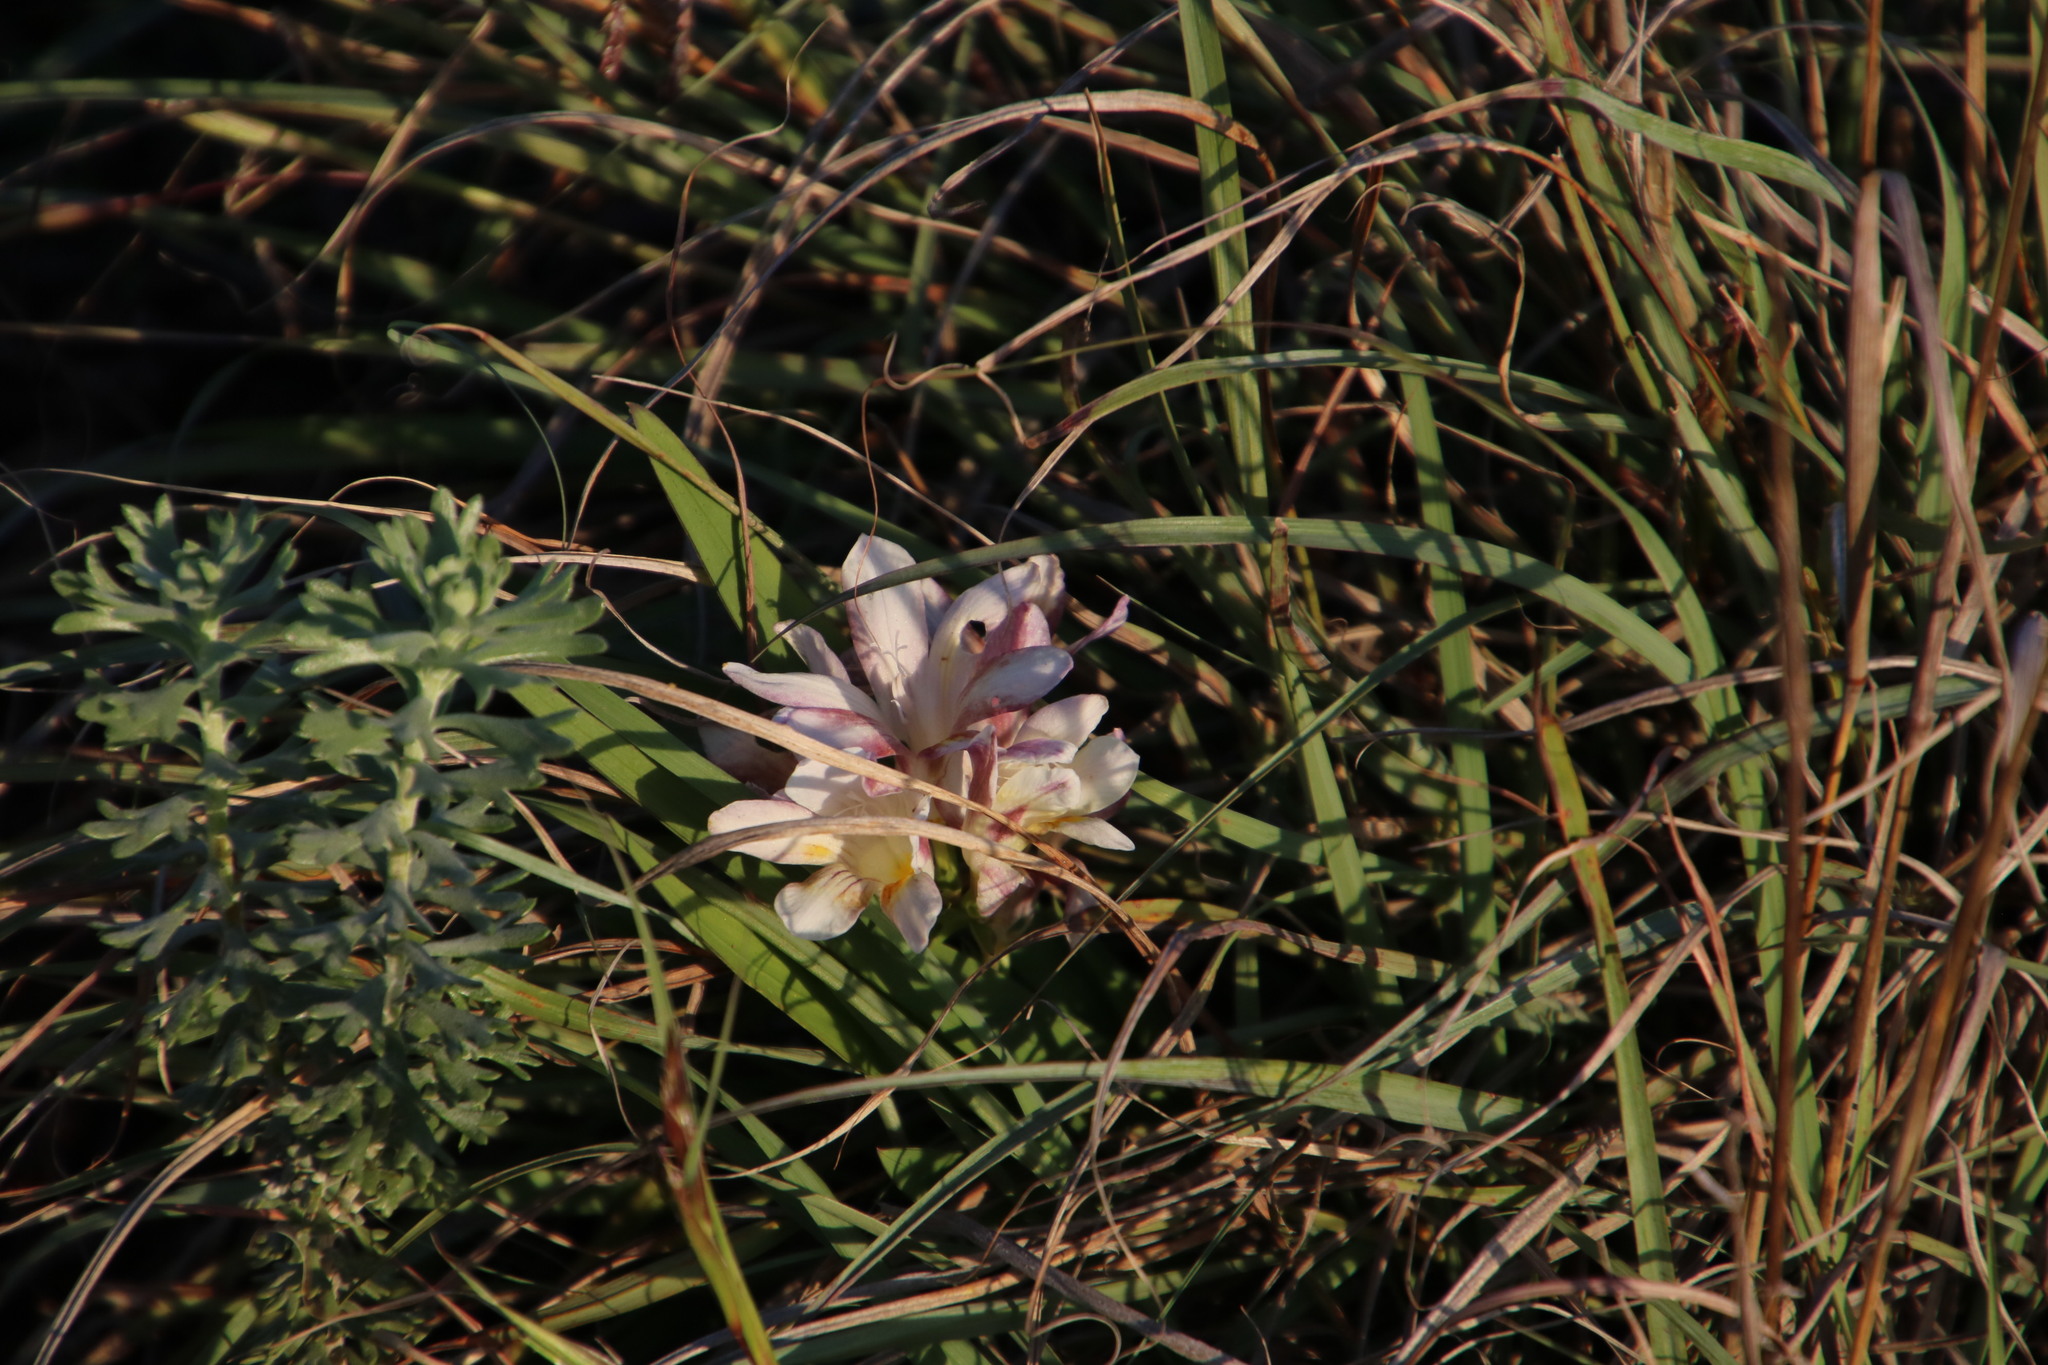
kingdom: Plantae
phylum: Tracheophyta
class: Liliopsida
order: Asparagales
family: Iridaceae
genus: Freesia
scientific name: Freesia caryophyllacea
